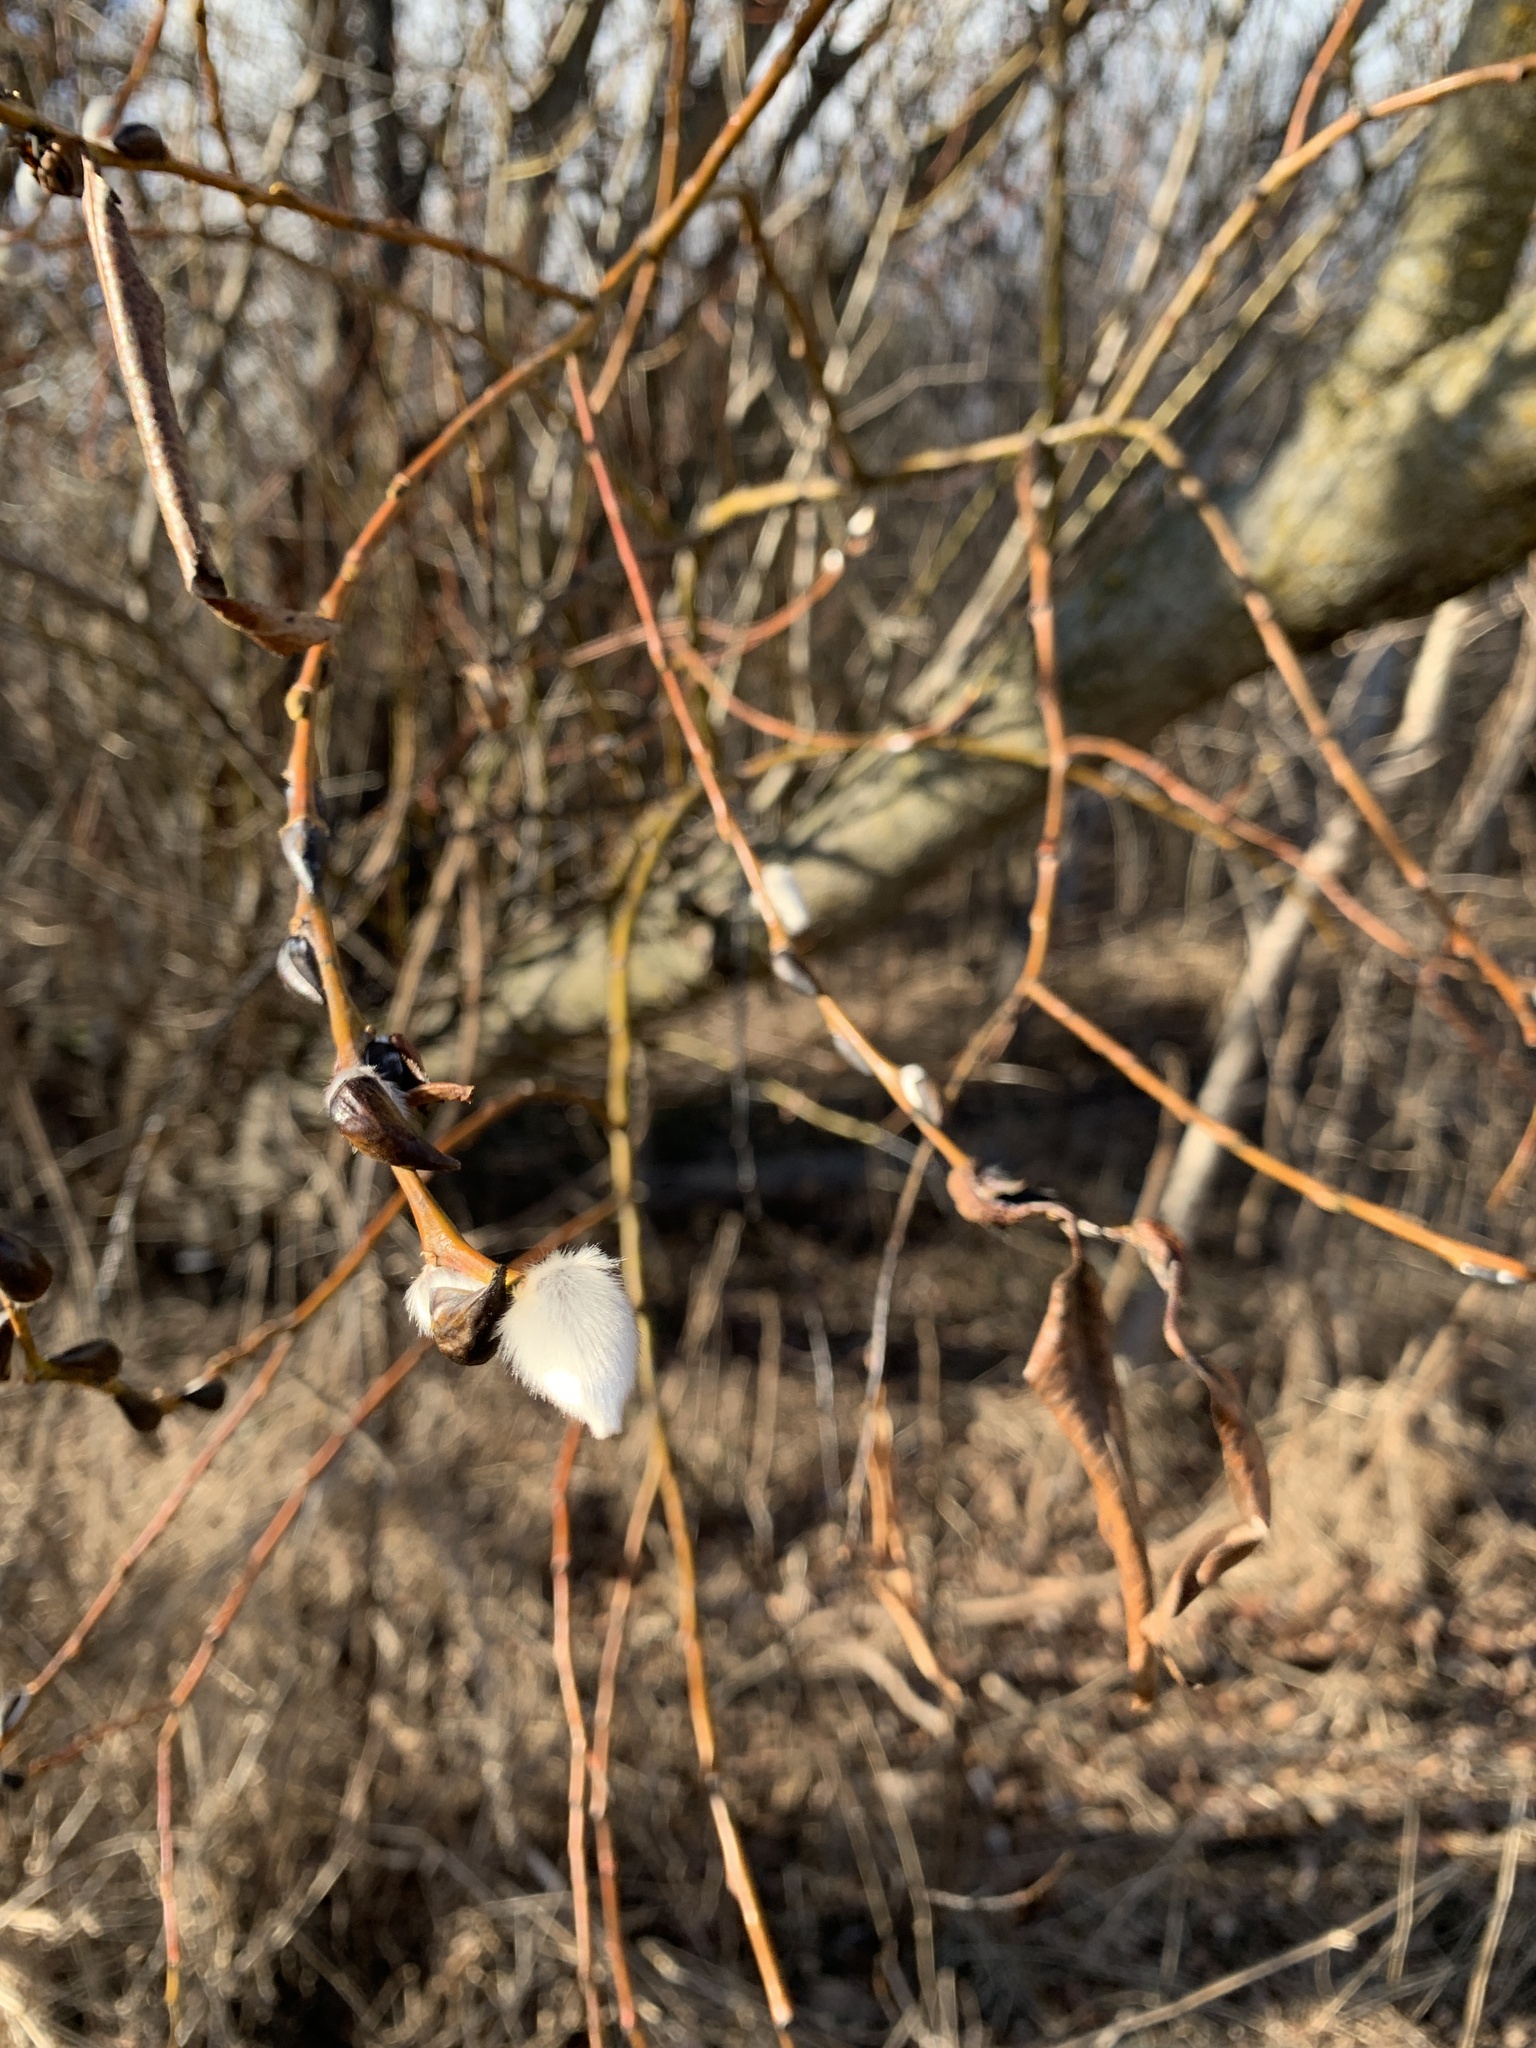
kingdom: Plantae
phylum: Tracheophyta
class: Magnoliopsida
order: Malpighiales
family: Salicaceae
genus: Salix
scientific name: Salix discolor
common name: Glaucous willow
